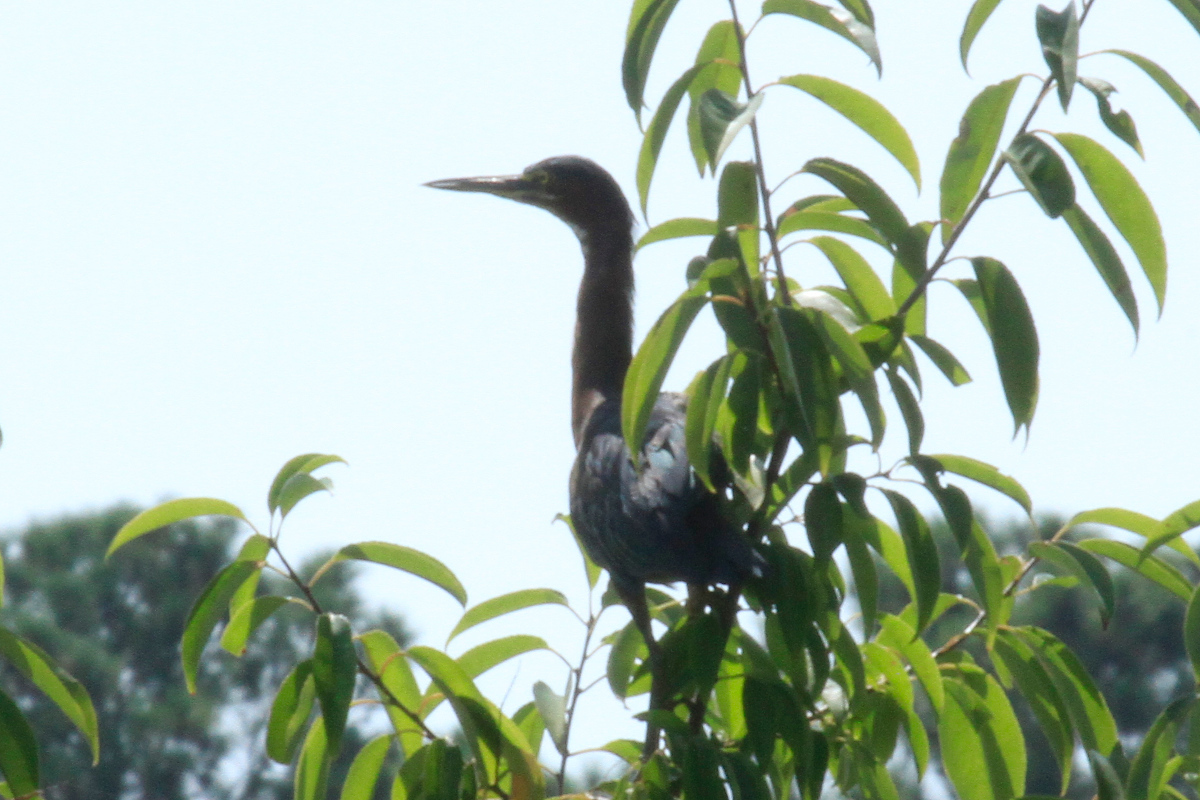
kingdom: Animalia
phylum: Chordata
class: Aves
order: Pelecaniformes
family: Ardeidae
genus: Butorides
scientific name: Butorides virescens
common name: Green heron
